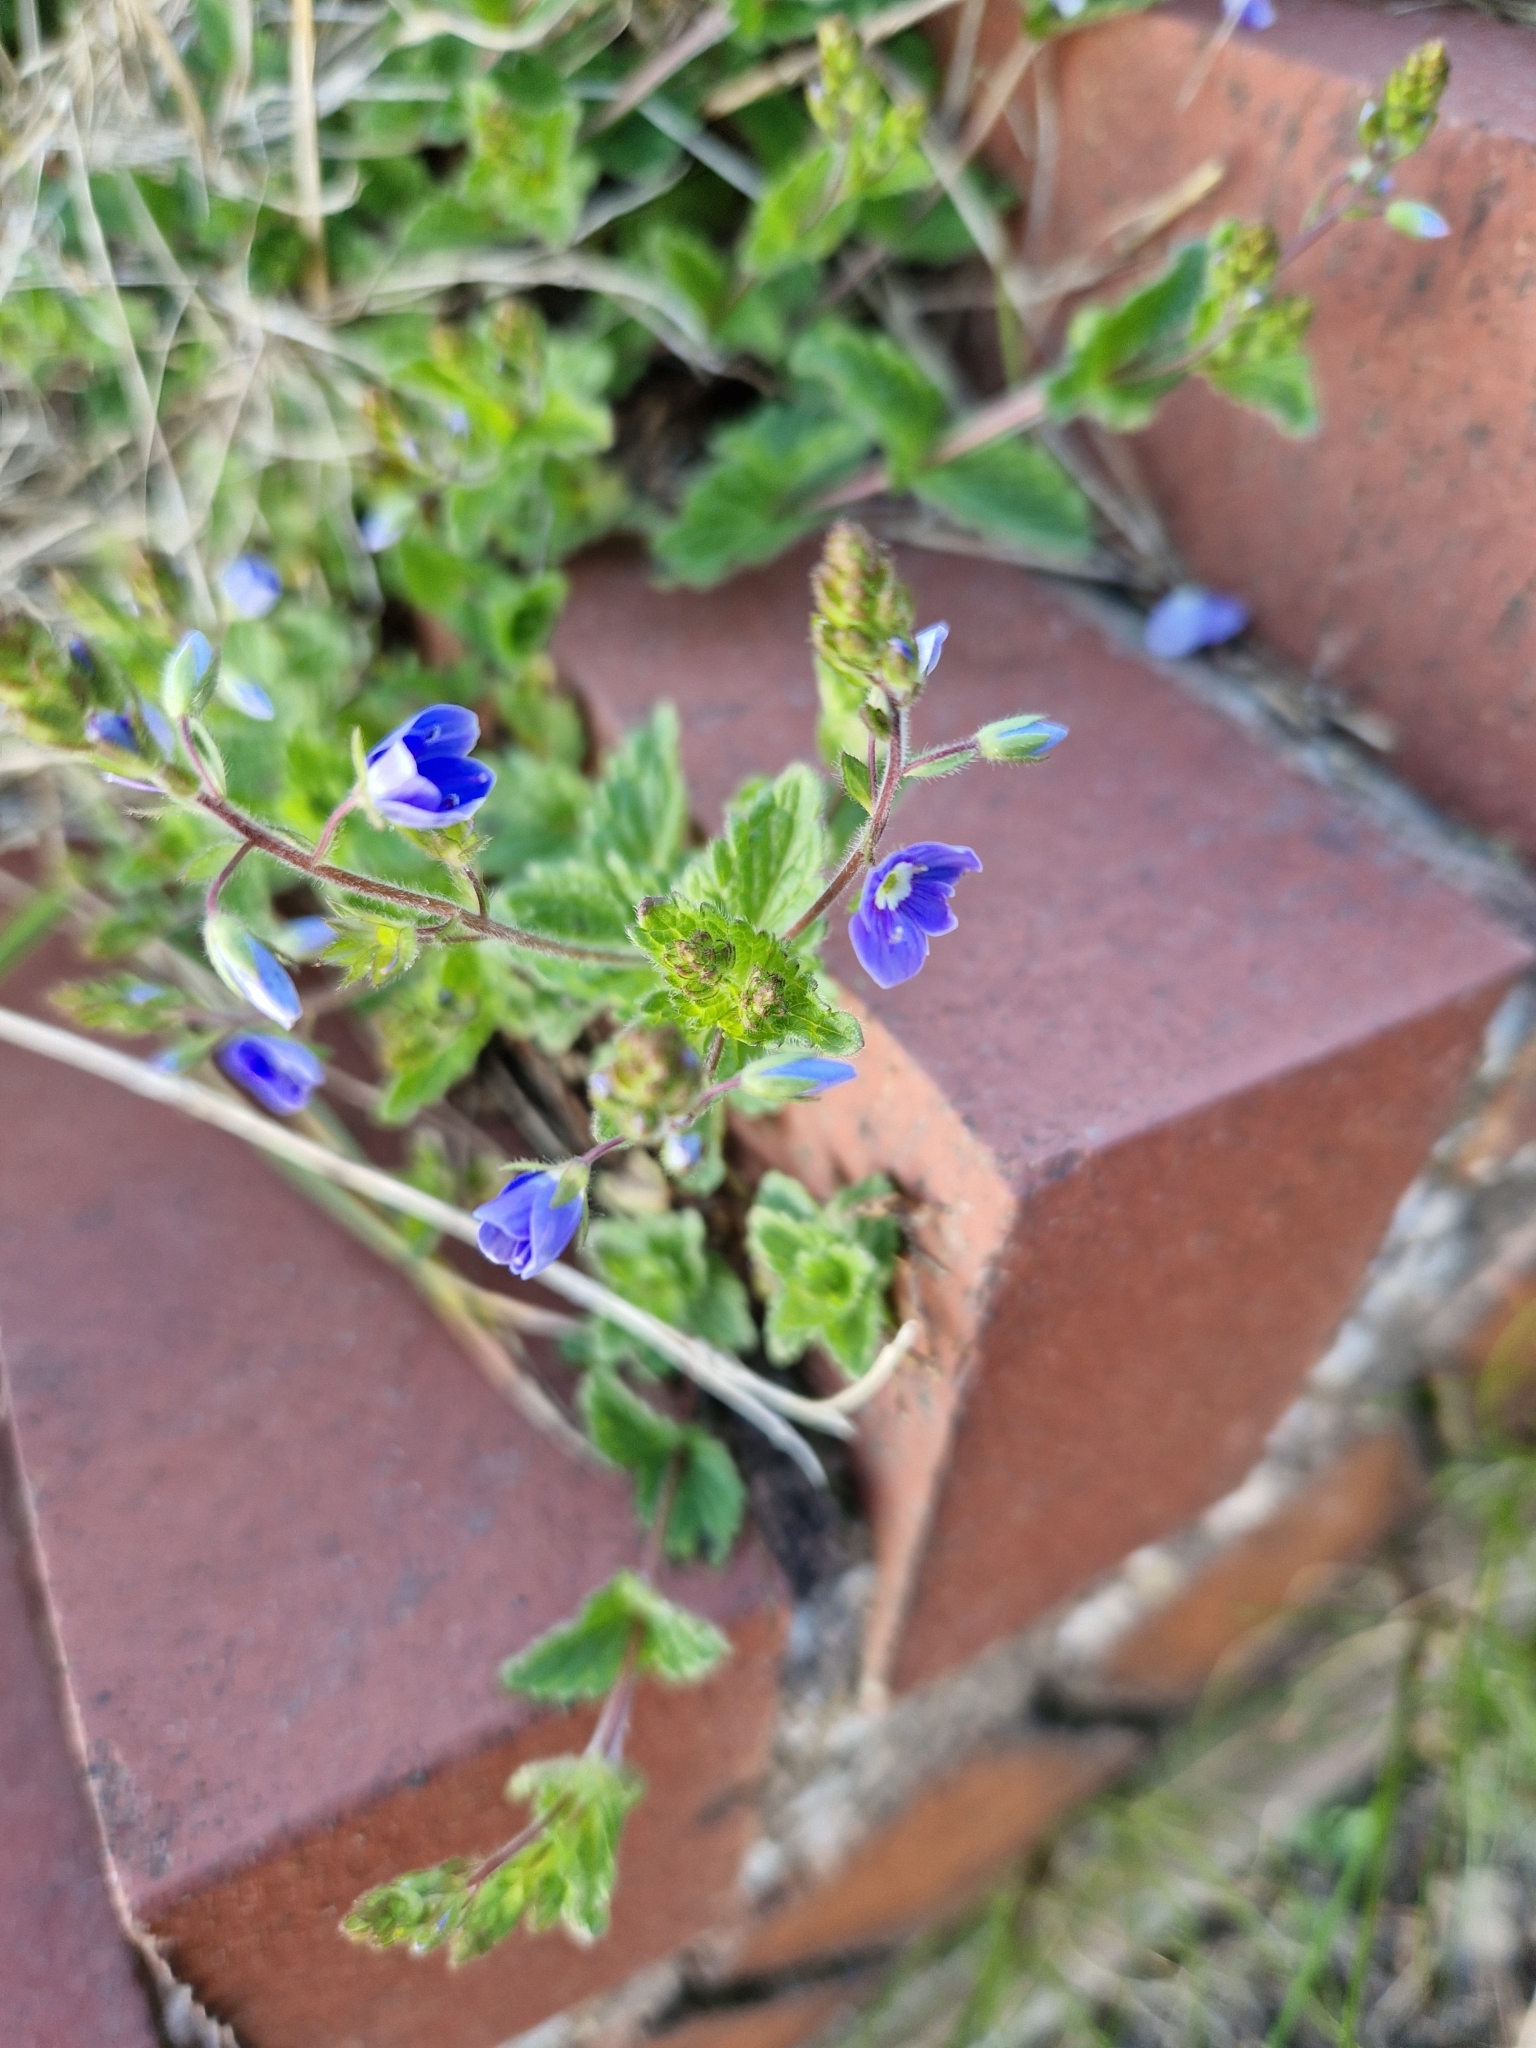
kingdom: Plantae
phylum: Tracheophyta
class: Magnoliopsida
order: Lamiales
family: Plantaginaceae
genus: Veronica
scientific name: Veronica chamaedrys
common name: Germander speedwell
